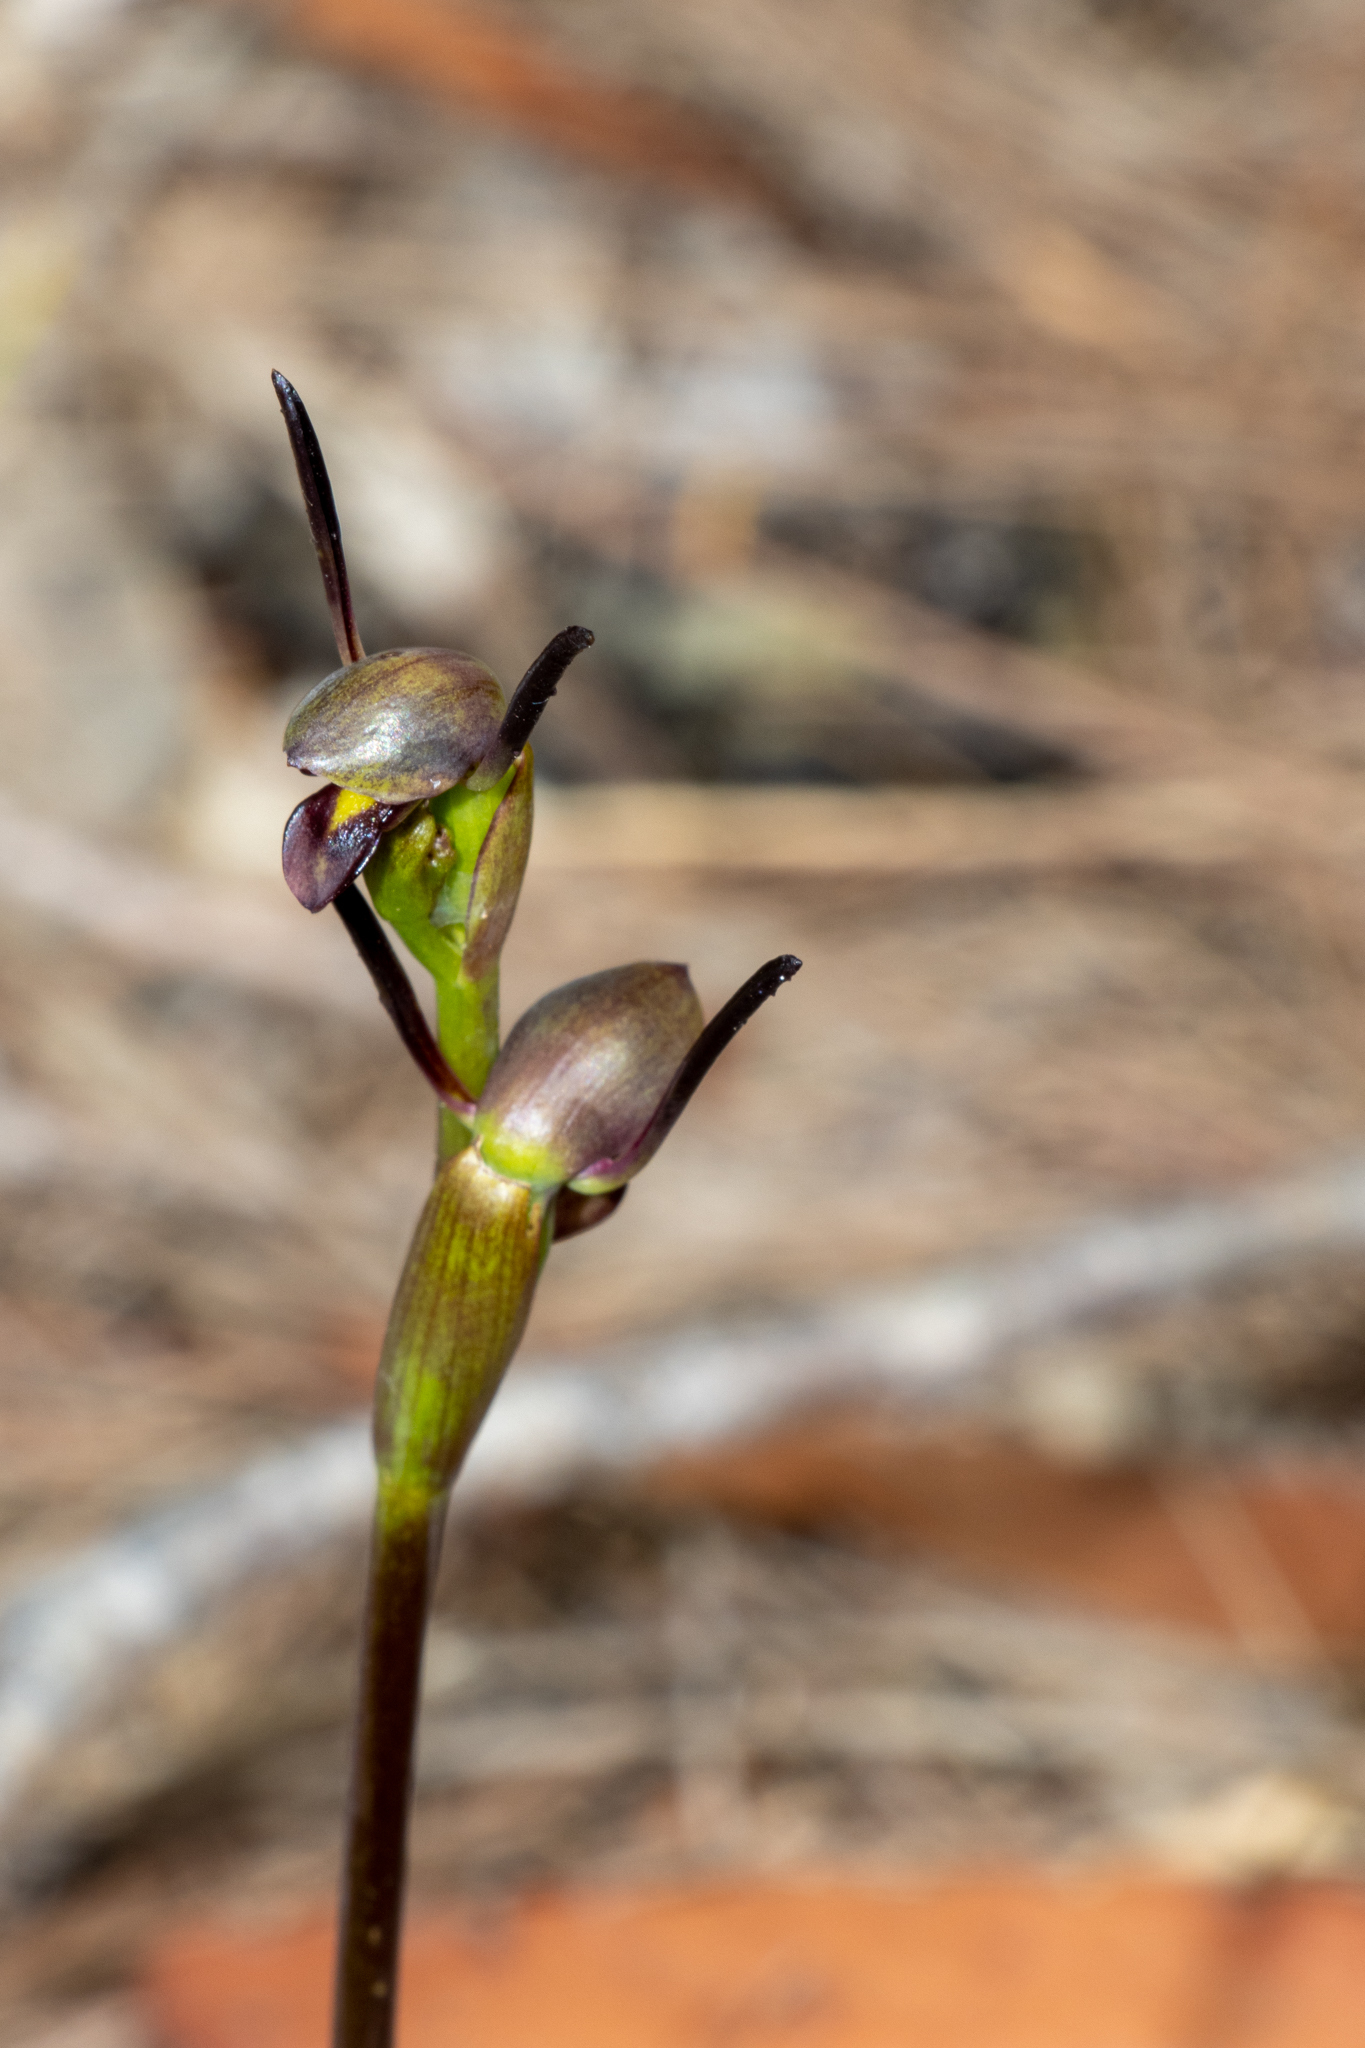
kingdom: Plantae
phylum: Tracheophyta
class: Liliopsida
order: Asparagales
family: Orchidaceae
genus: Orthoceras
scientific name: Orthoceras strictum
